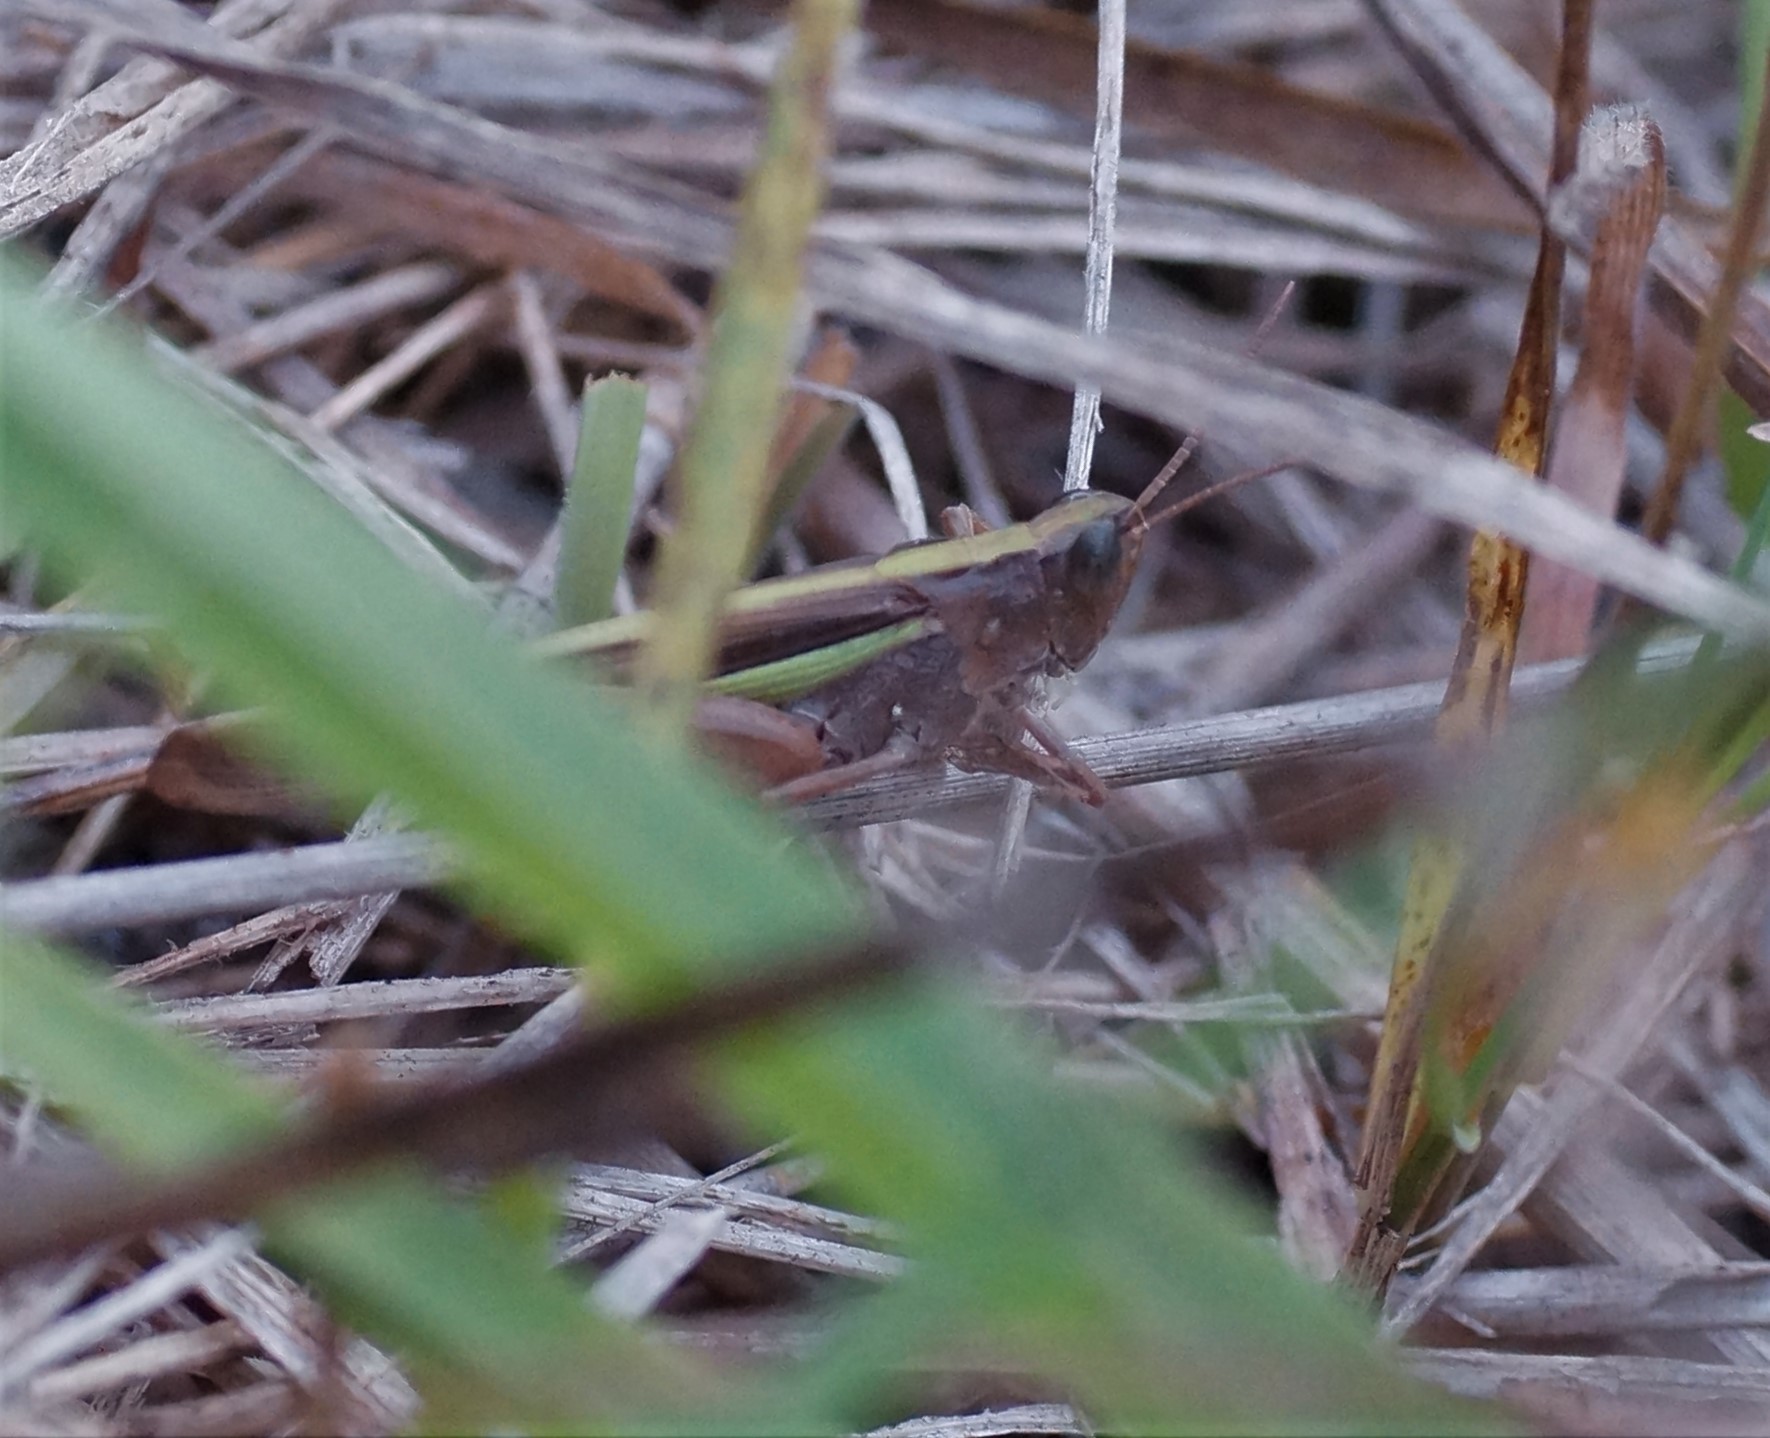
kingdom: Animalia
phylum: Arthropoda
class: Insecta
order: Orthoptera
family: Acrididae
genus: Schizobothrus
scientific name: Schizobothrus flavovittatus
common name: Disappearing grasshopper
